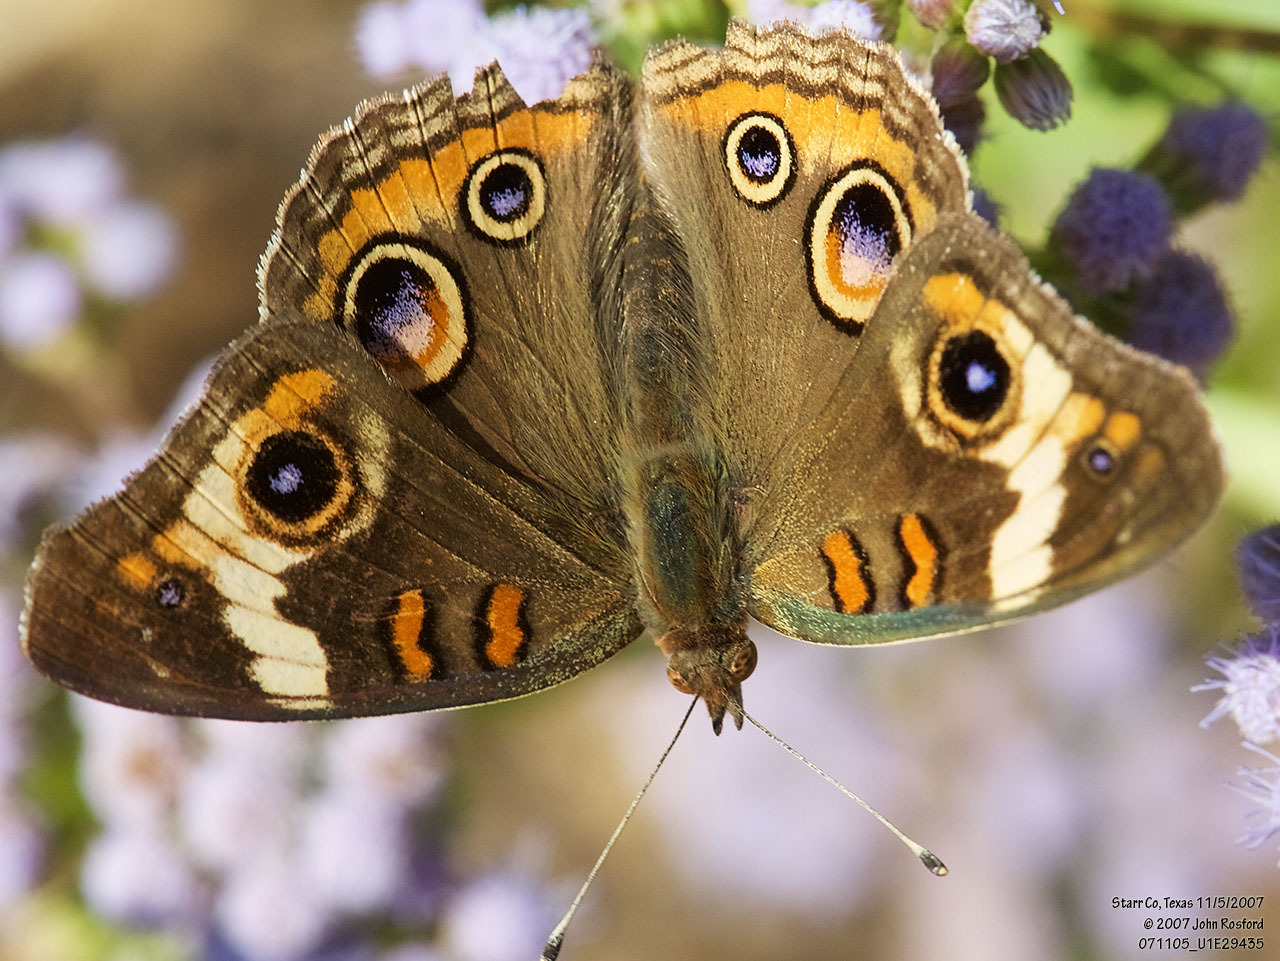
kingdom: Animalia
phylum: Arthropoda
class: Insecta
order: Lepidoptera
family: Nymphalidae
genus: Junonia
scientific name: Junonia coenia
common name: Common buckeye
